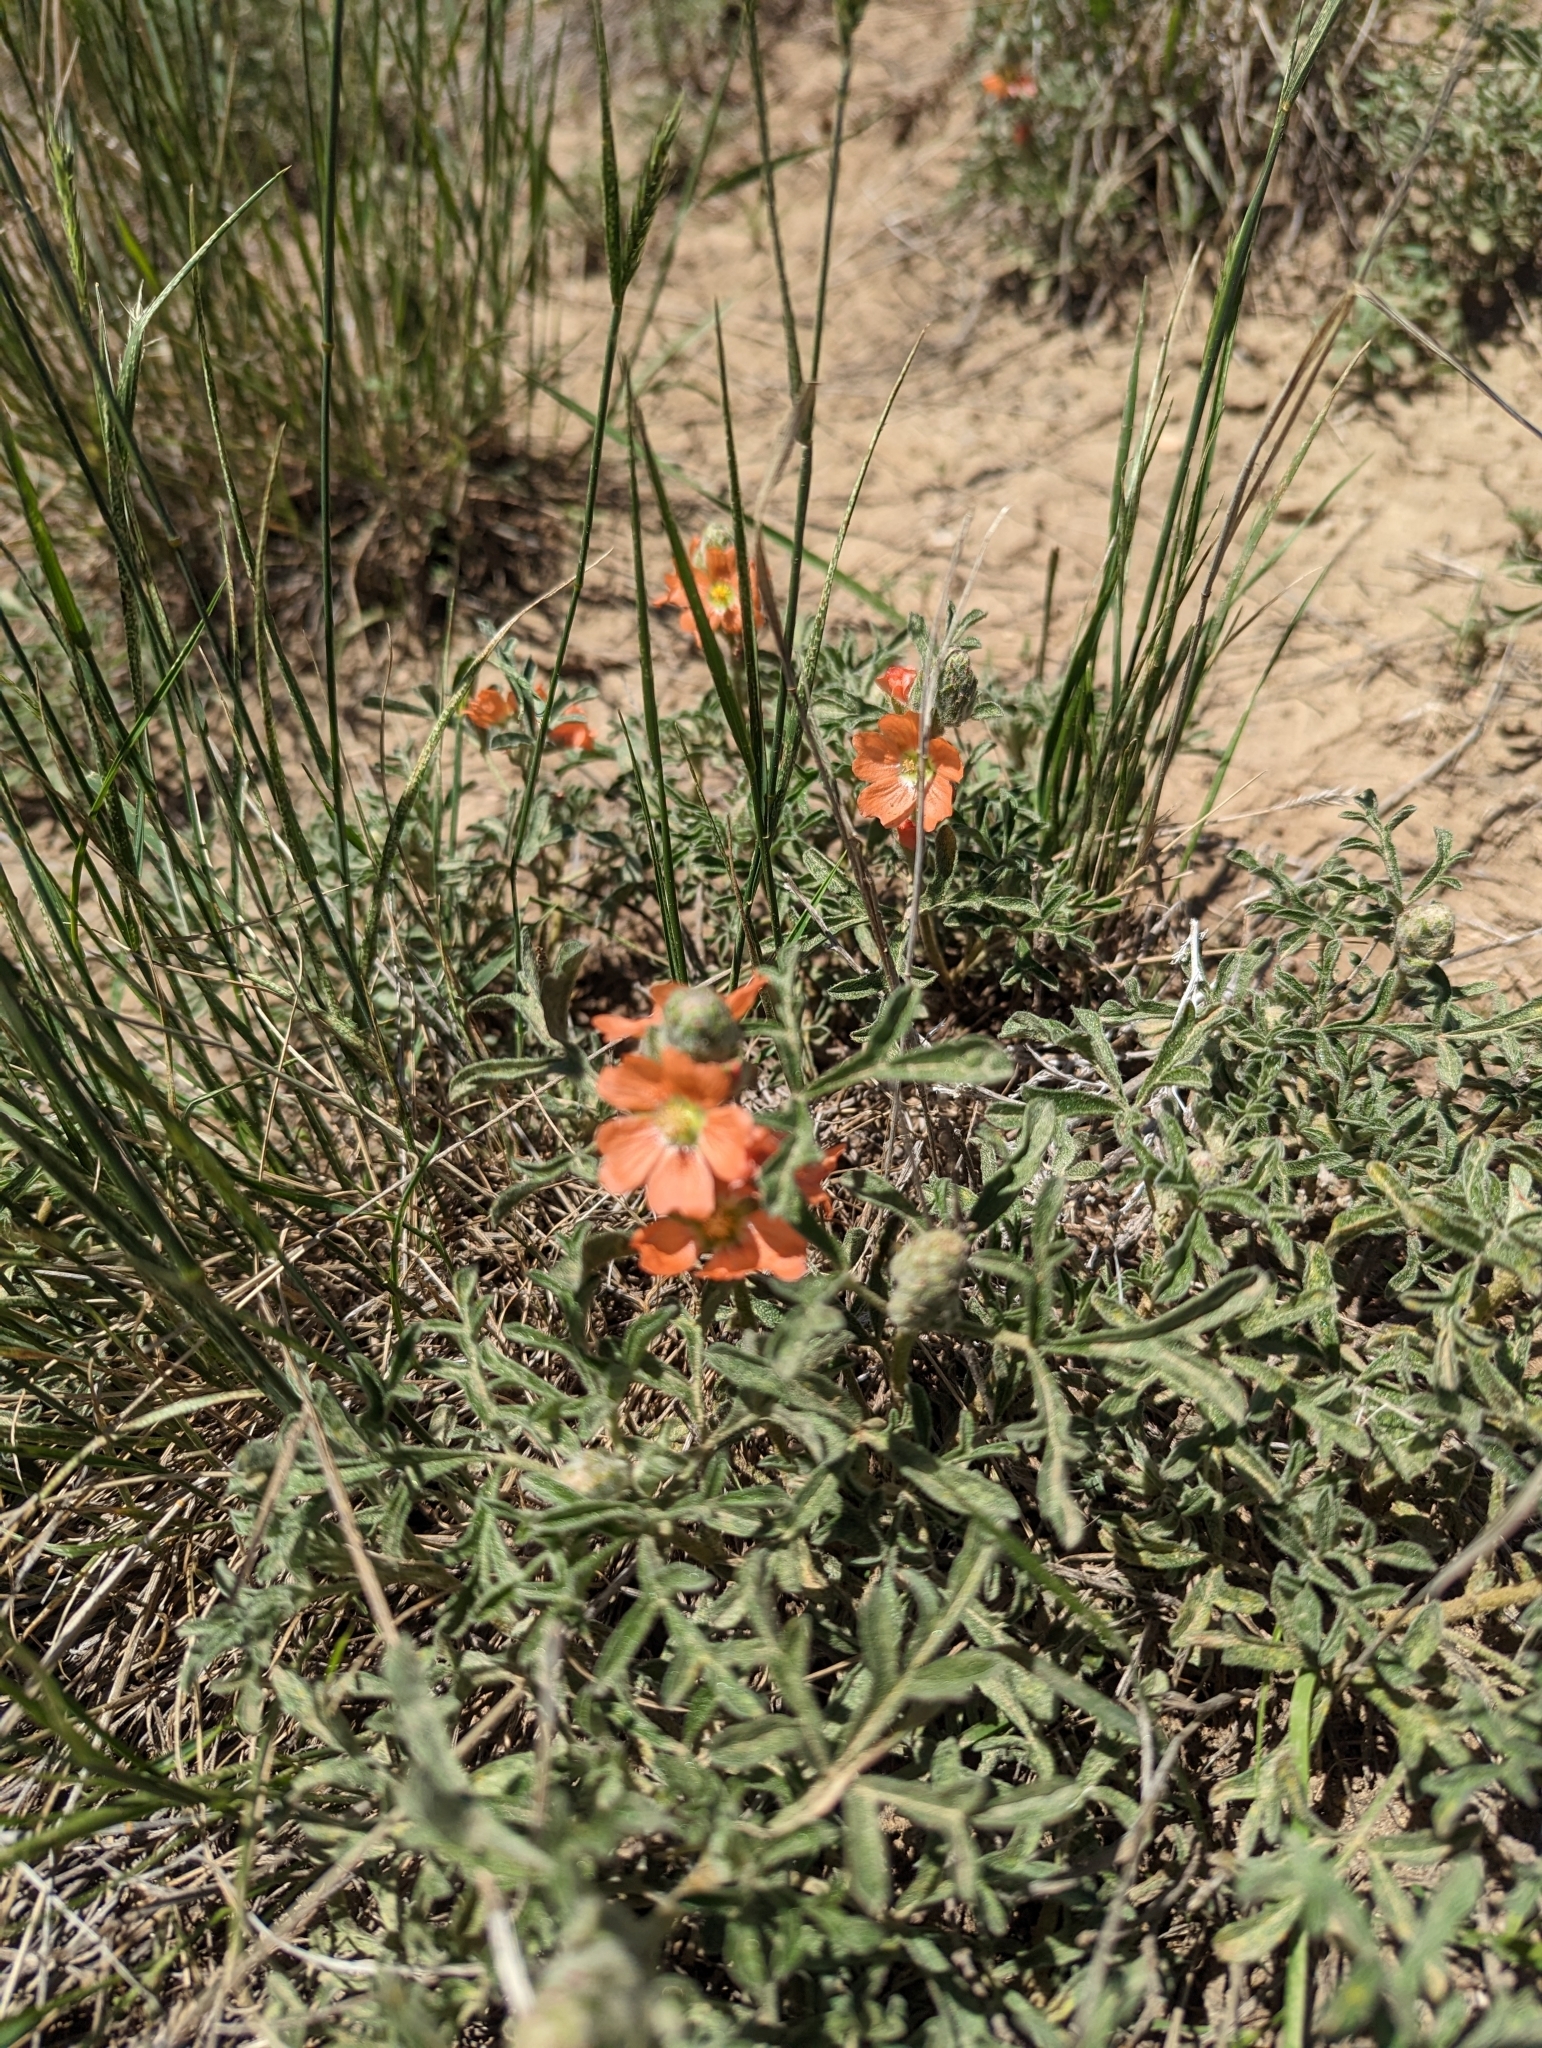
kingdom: Plantae
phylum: Tracheophyta
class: Magnoliopsida
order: Malvales
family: Malvaceae
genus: Sphaeralcea
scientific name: Sphaeralcea coccinea
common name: Moss-rose
